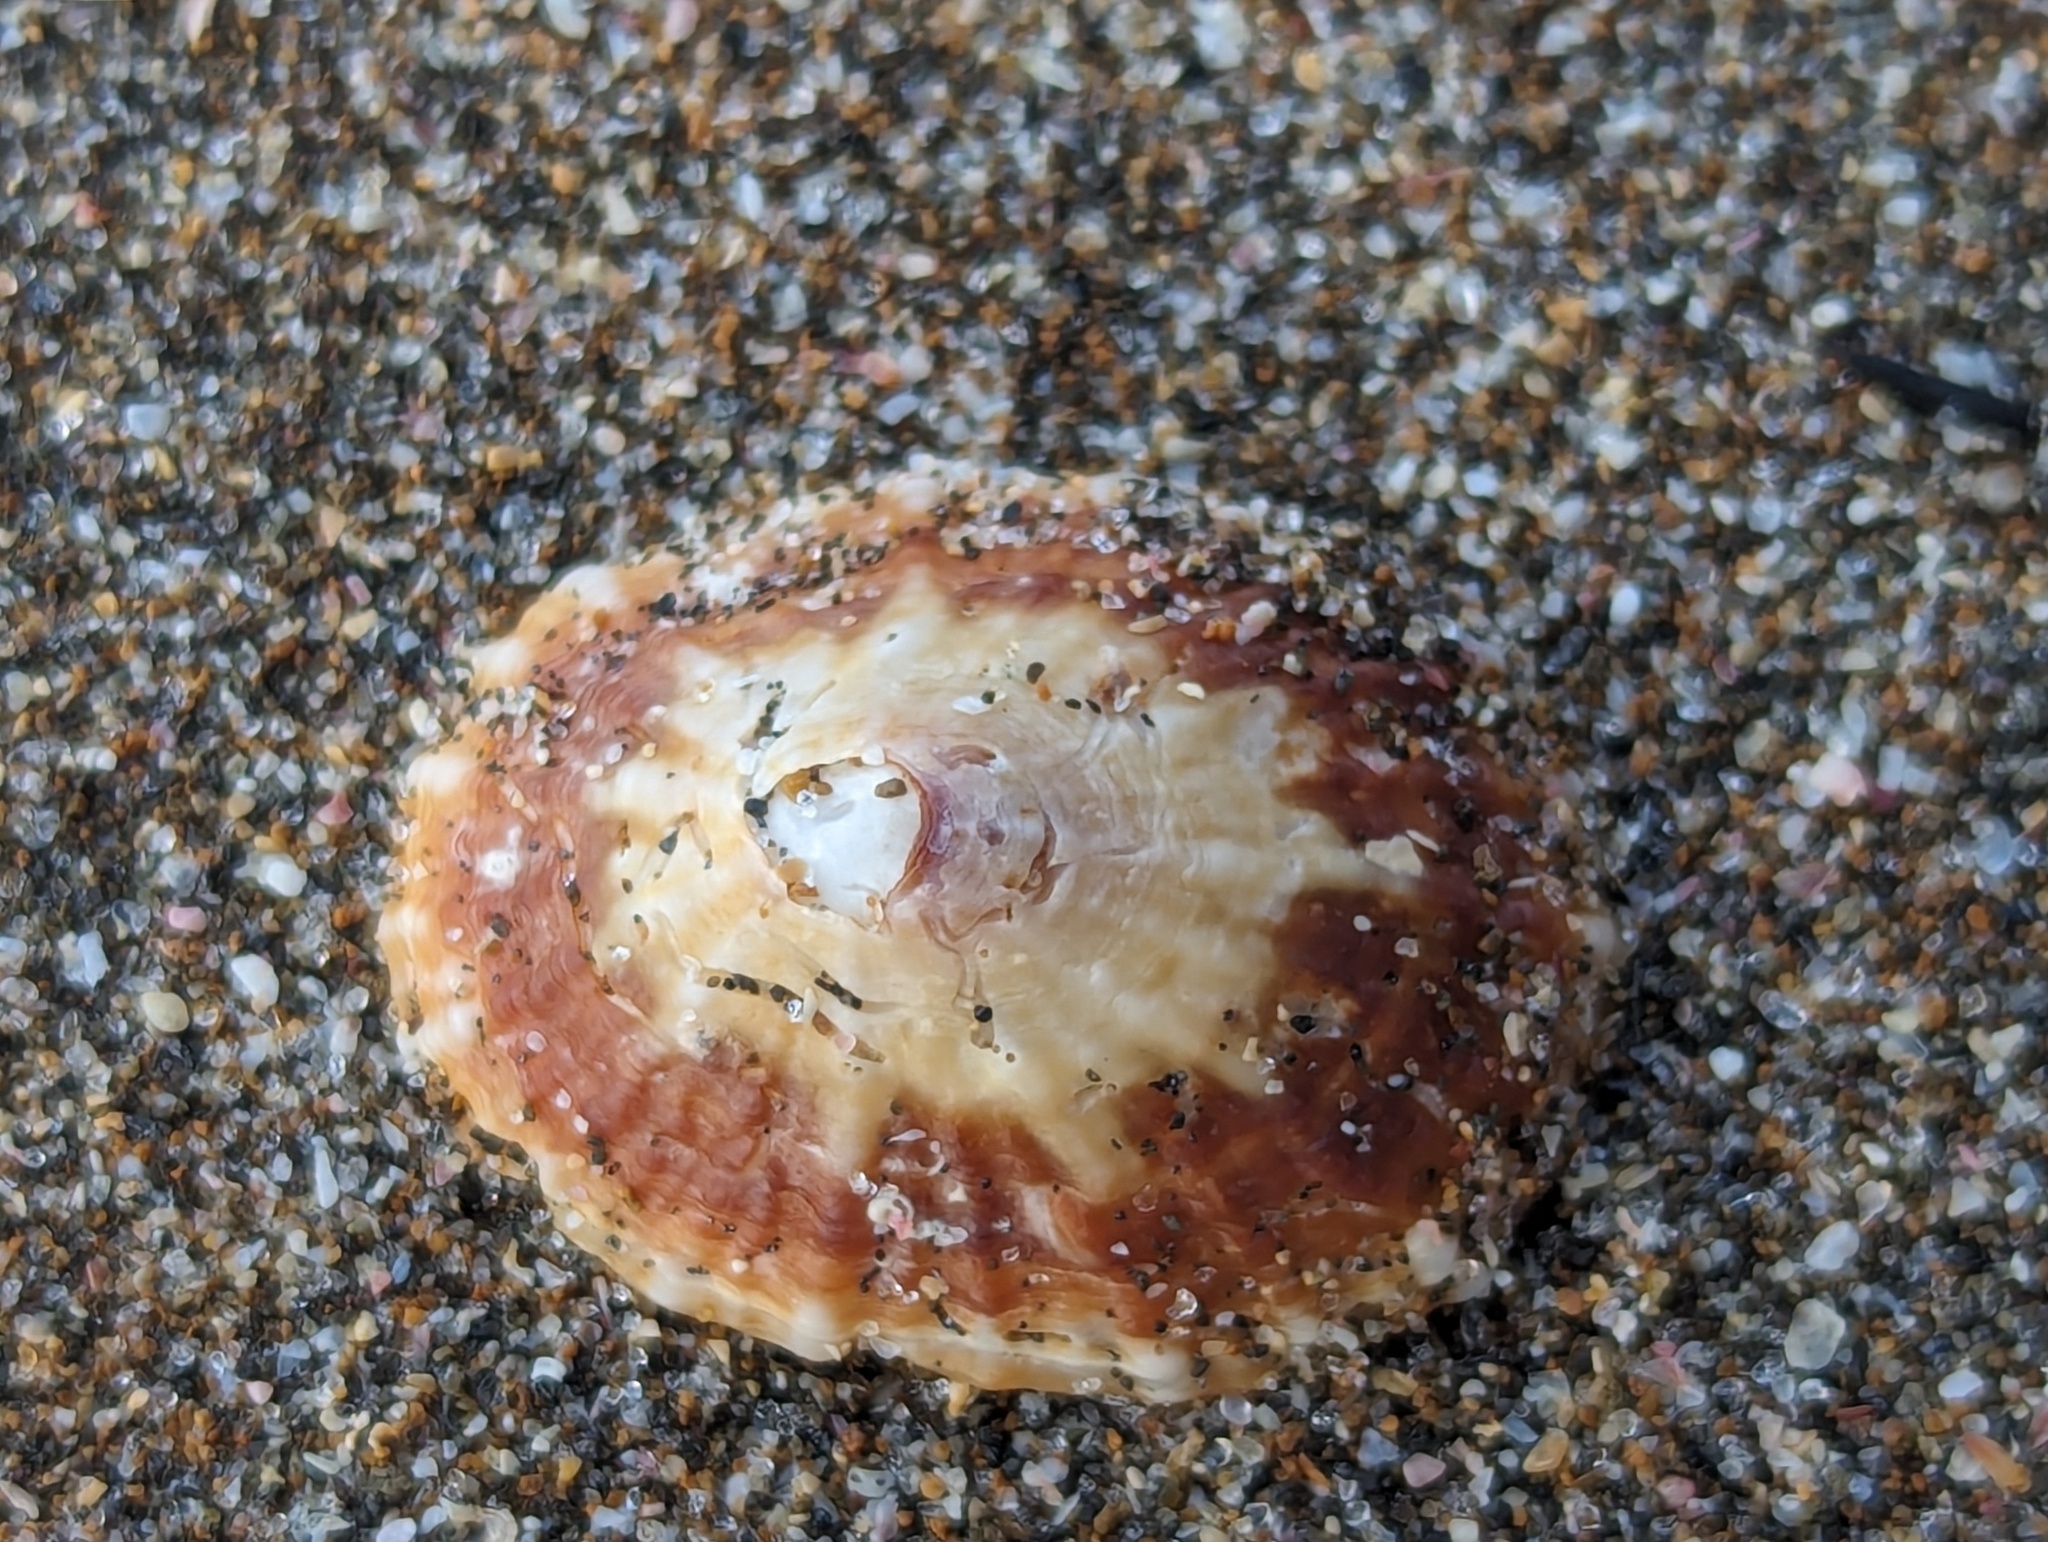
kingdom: Animalia
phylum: Mollusca
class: Gastropoda
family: Nacellidae
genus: Cellana
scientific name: Cellana stellifera
